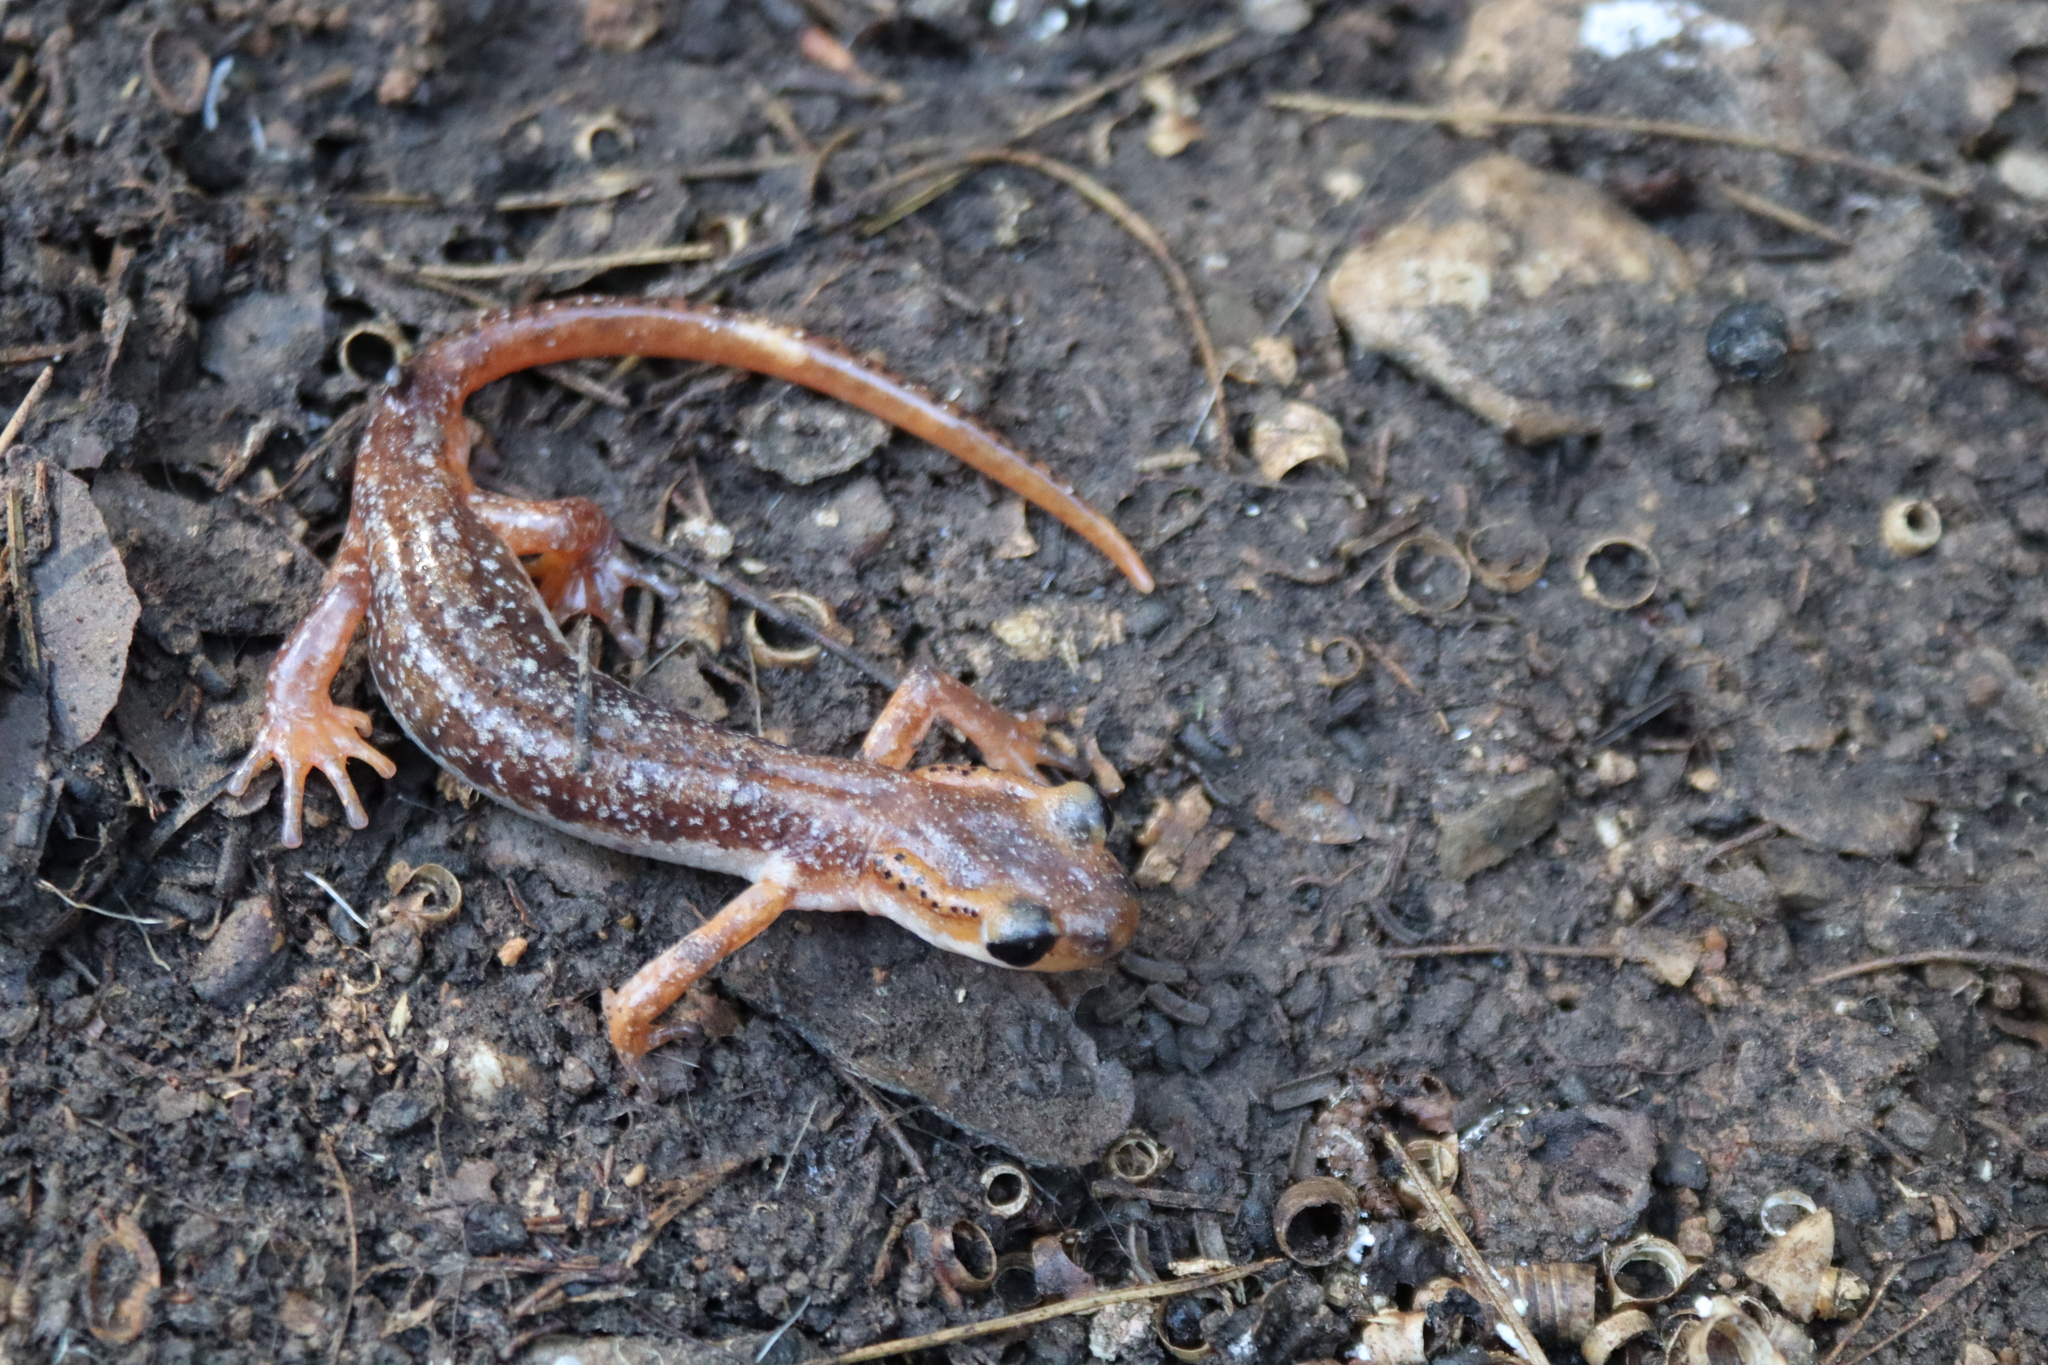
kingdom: Animalia
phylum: Chordata
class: Amphibia
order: Caudata
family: Salamandridae
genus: Lyciasalamandra
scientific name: Lyciasalamandra billae
